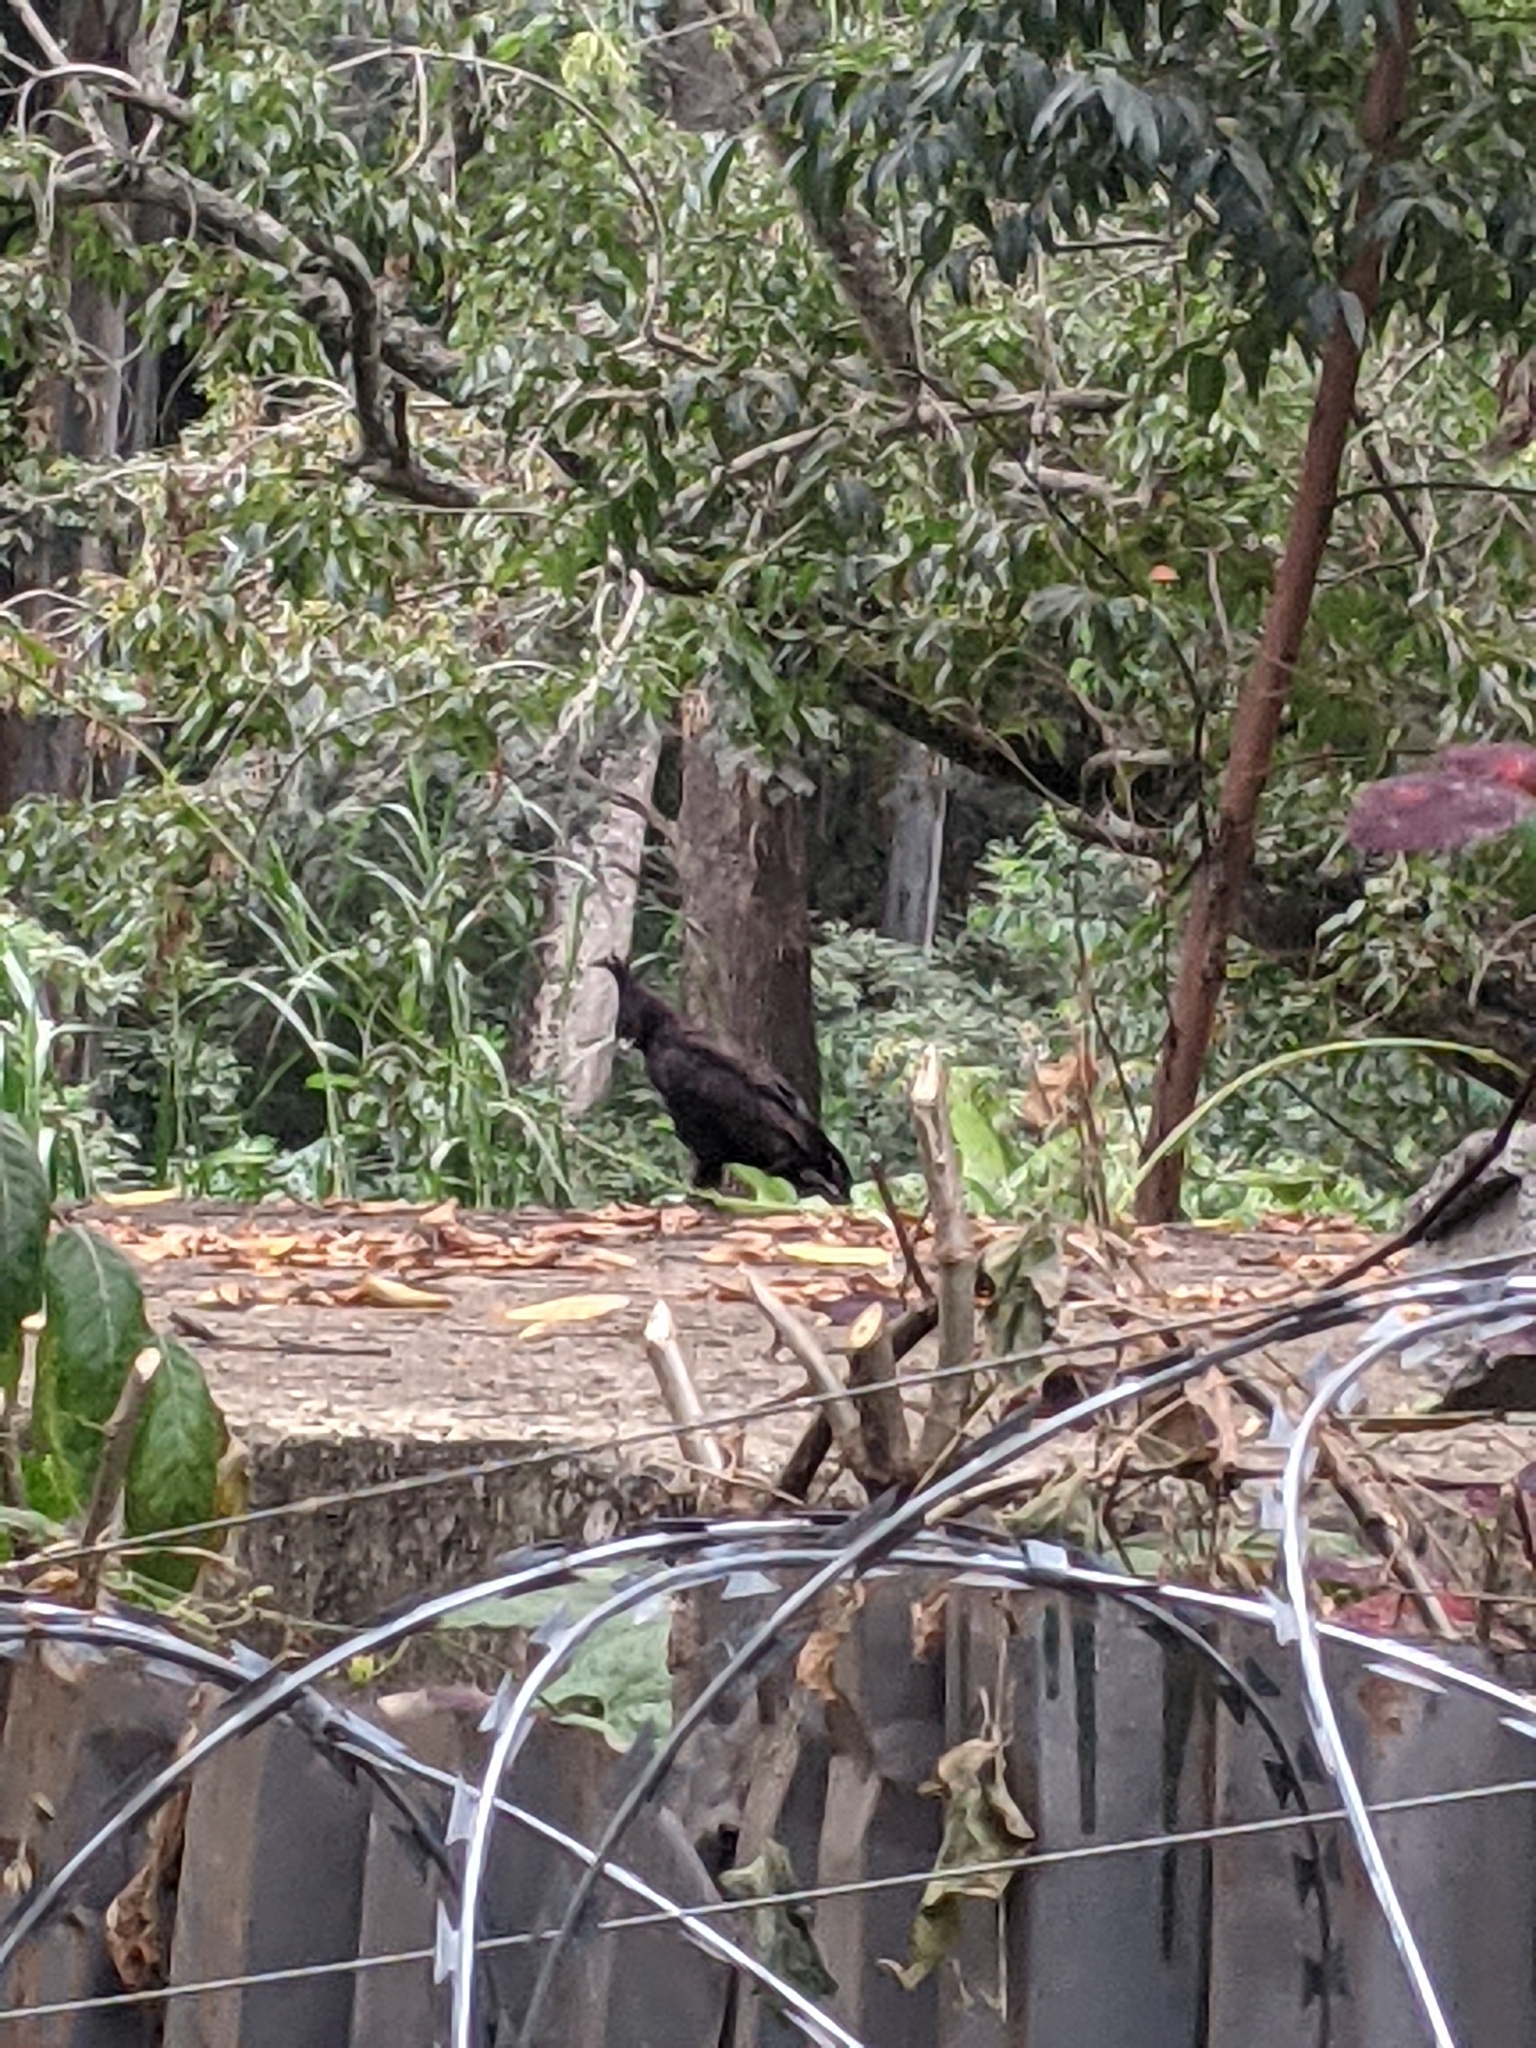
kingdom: Animalia
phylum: Chordata
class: Aves
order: Accipitriformes
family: Accipitridae
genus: Lophaetus
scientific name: Lophaetus occipitalis
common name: Long-crested eagle
